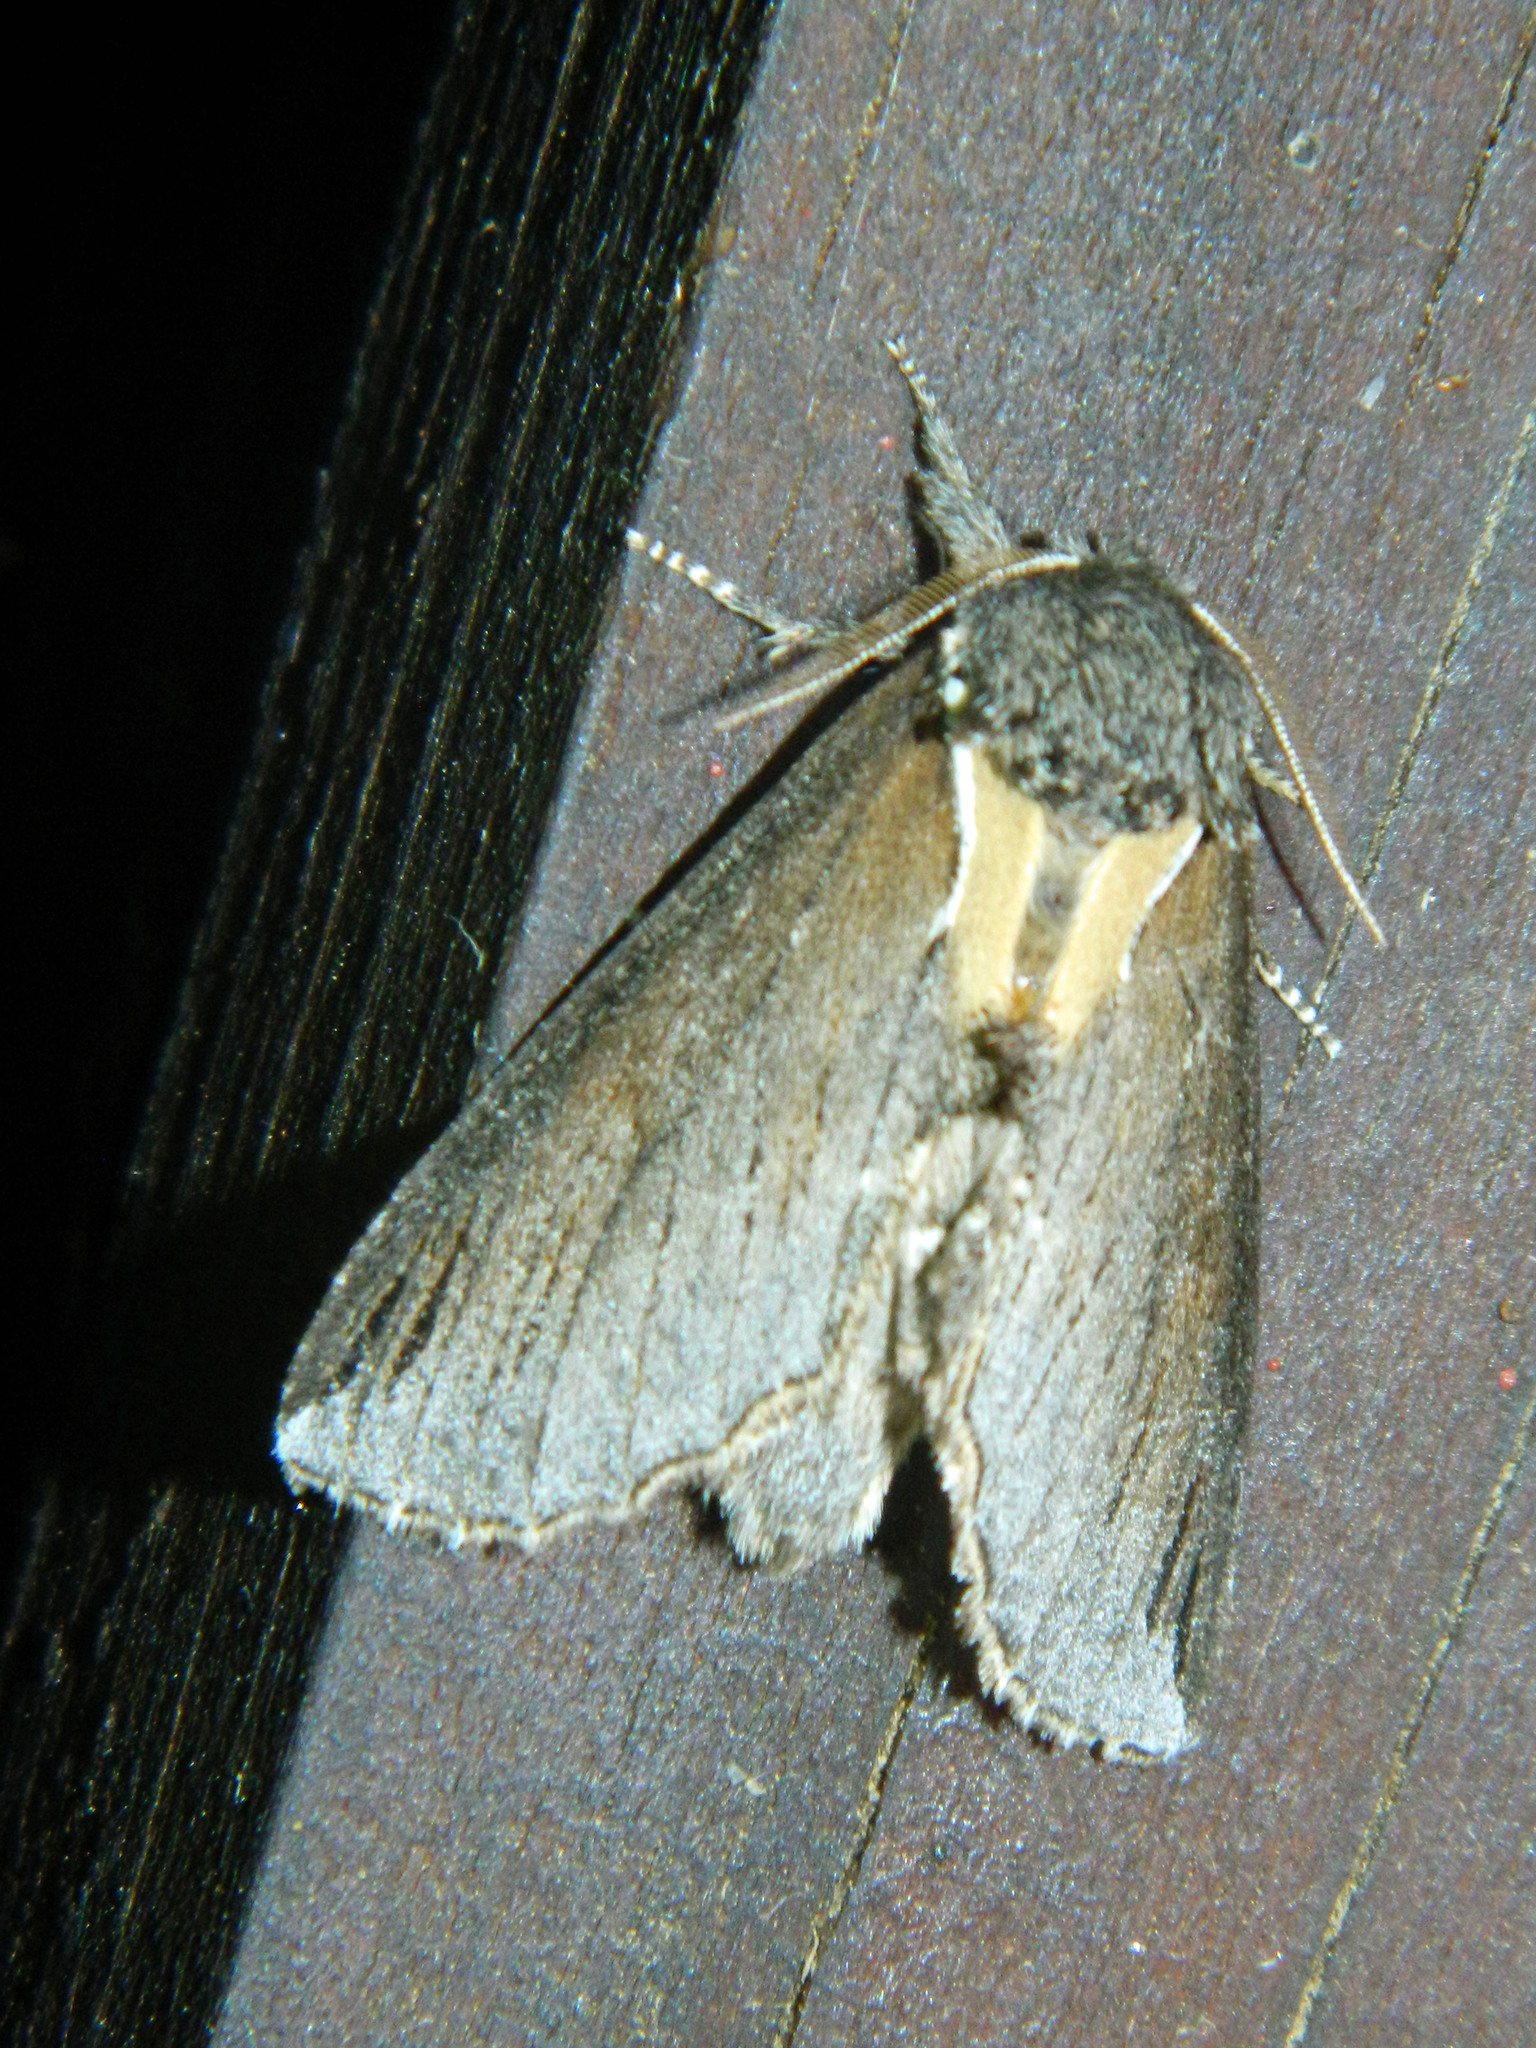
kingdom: Animalia
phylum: Arthropoda
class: Insecta
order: Lepidoptera
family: Notodontidae
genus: Pheosidea
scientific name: Pheosidea elegans
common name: Elegant prominent
